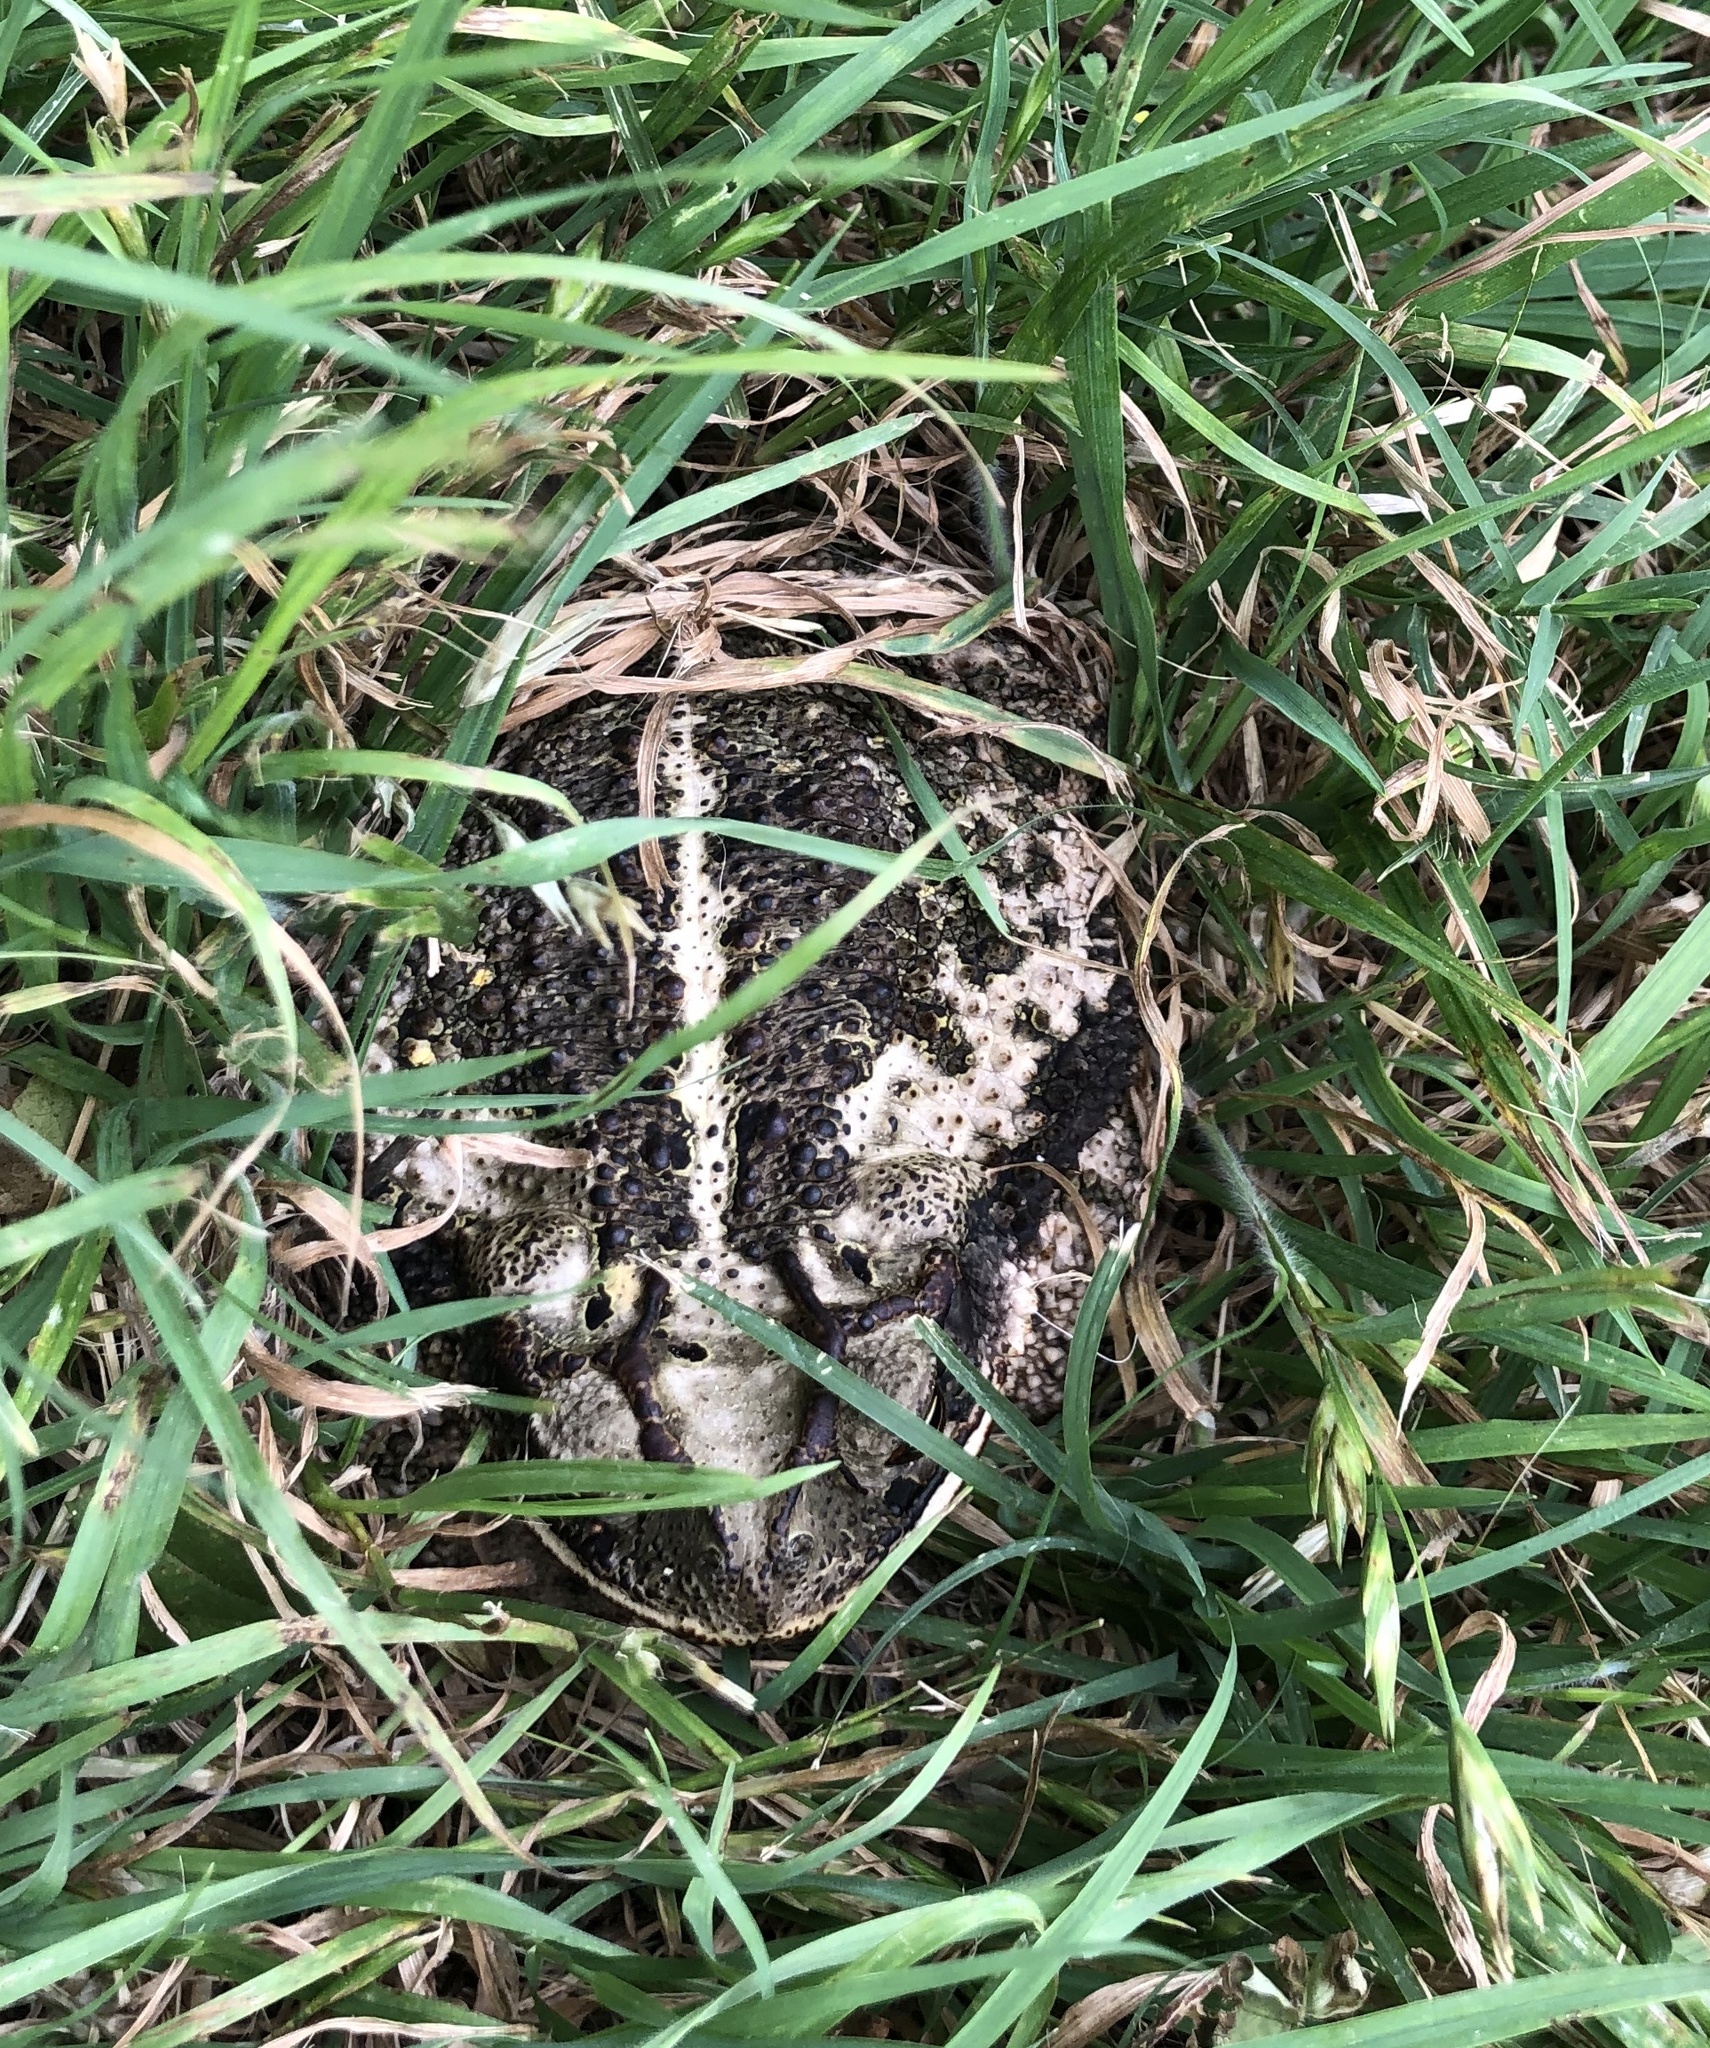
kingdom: Animalia
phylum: Chordata
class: Amphibia
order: Anura
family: Bufonidae
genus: Incilius
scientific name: Incilius nebulifer
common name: Gulf coast toad
